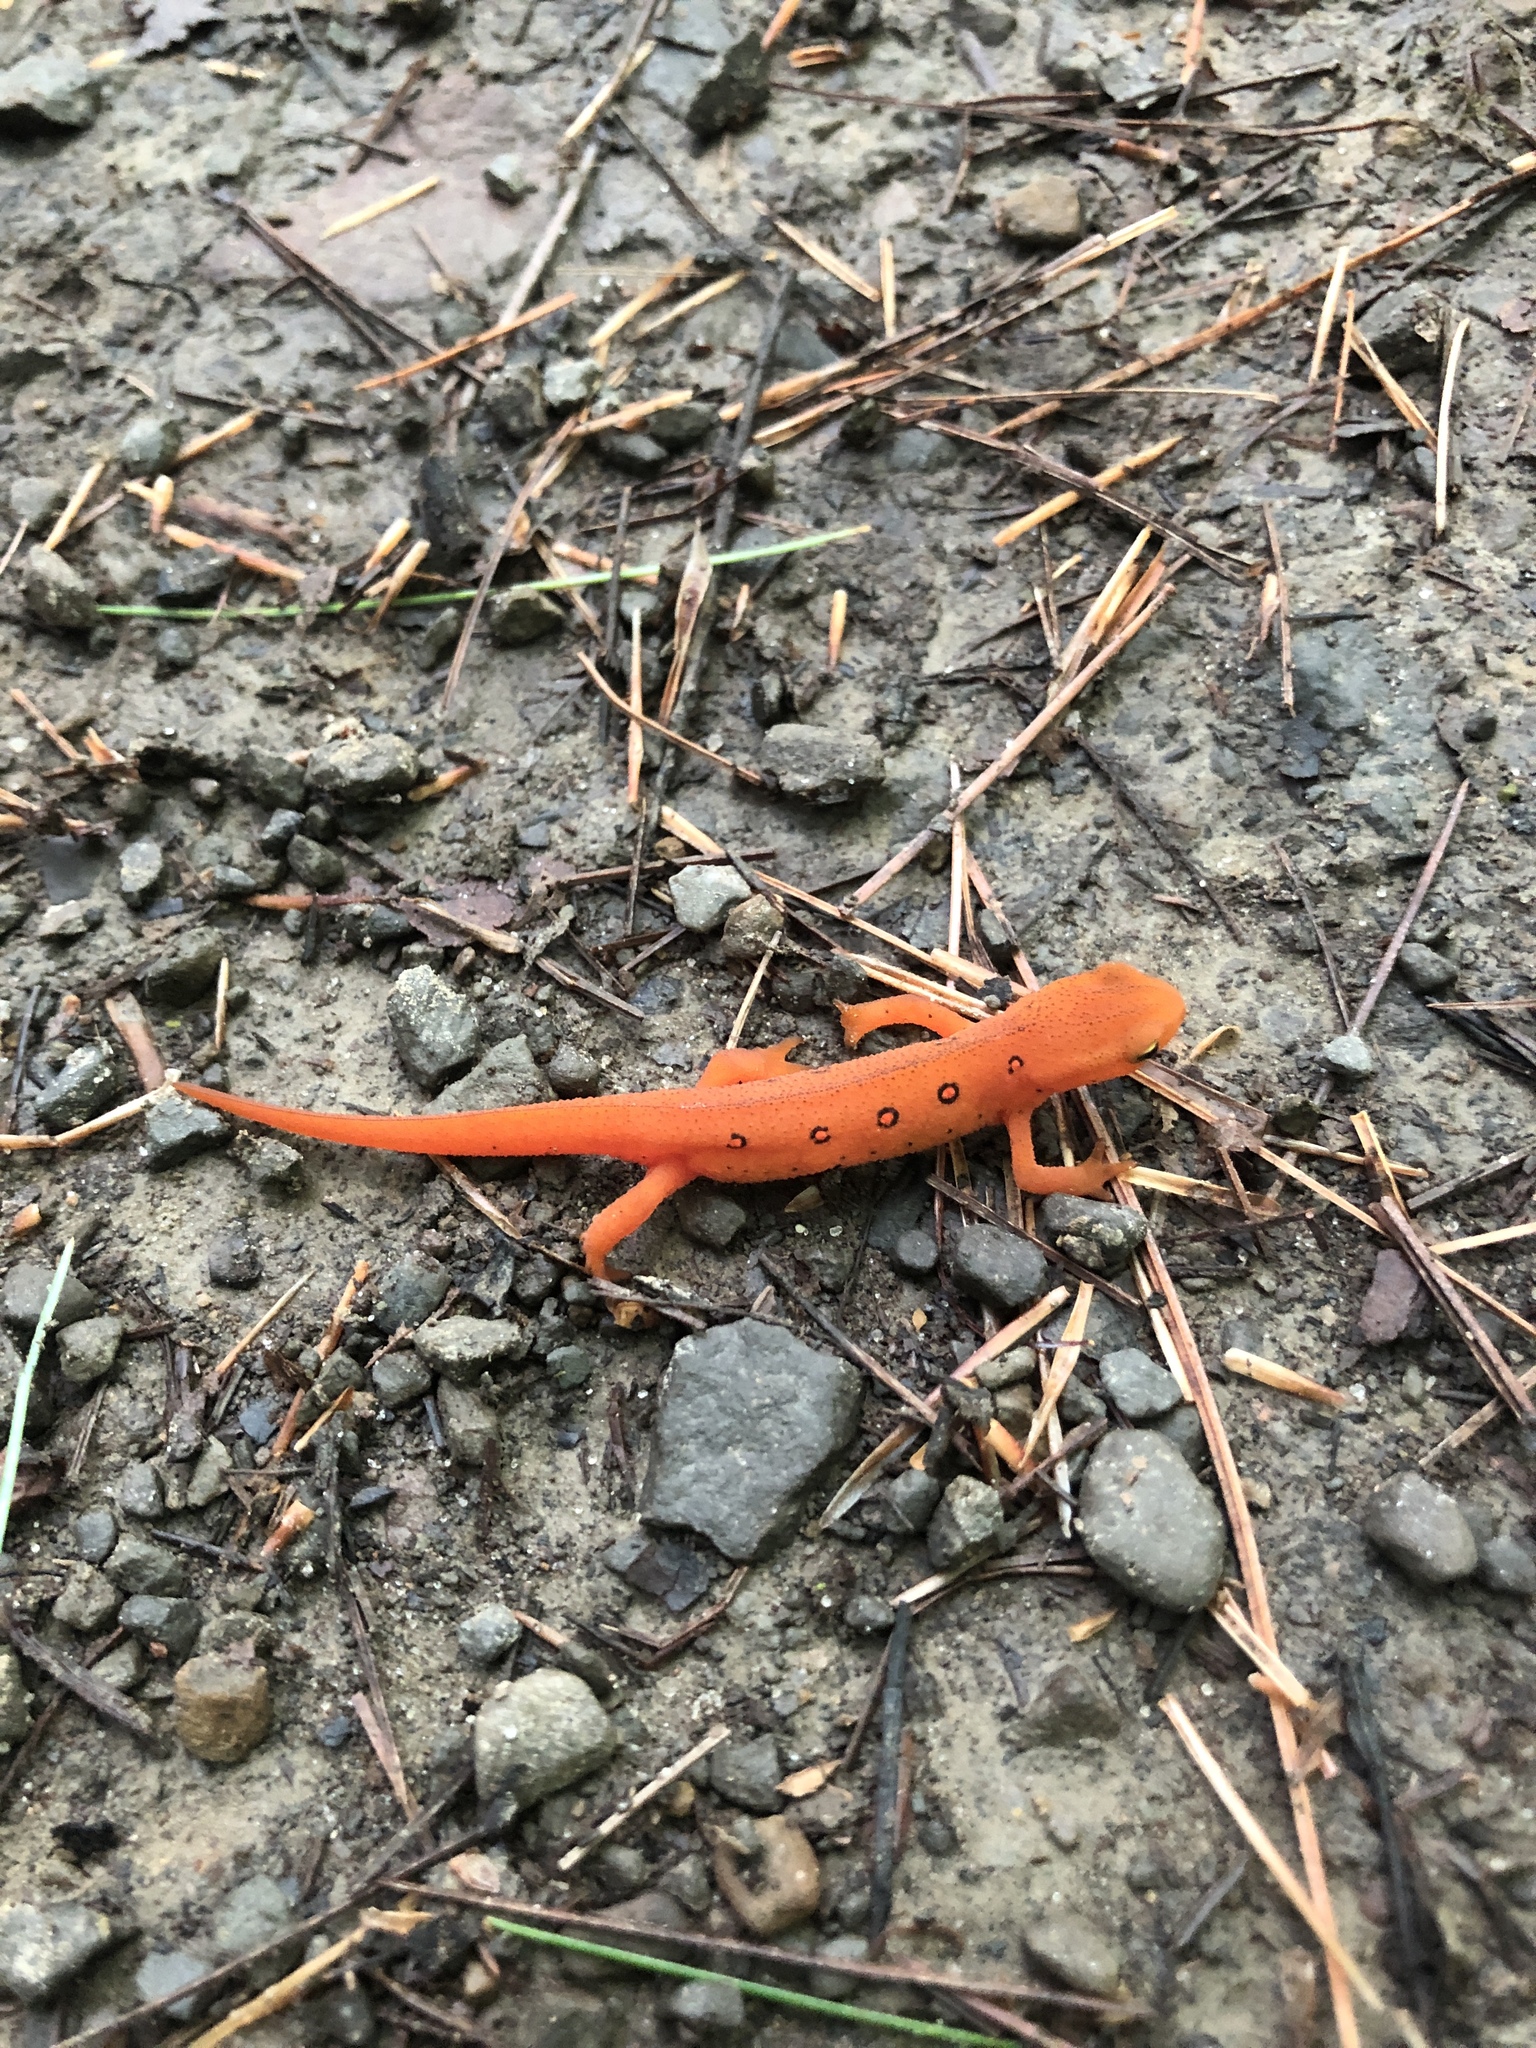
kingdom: Animalia
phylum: Chordata
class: Amphibia
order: Caudata
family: Salamandridae
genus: Notophthalmus
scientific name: Notophthalmus viridescens
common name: Eastern newt
